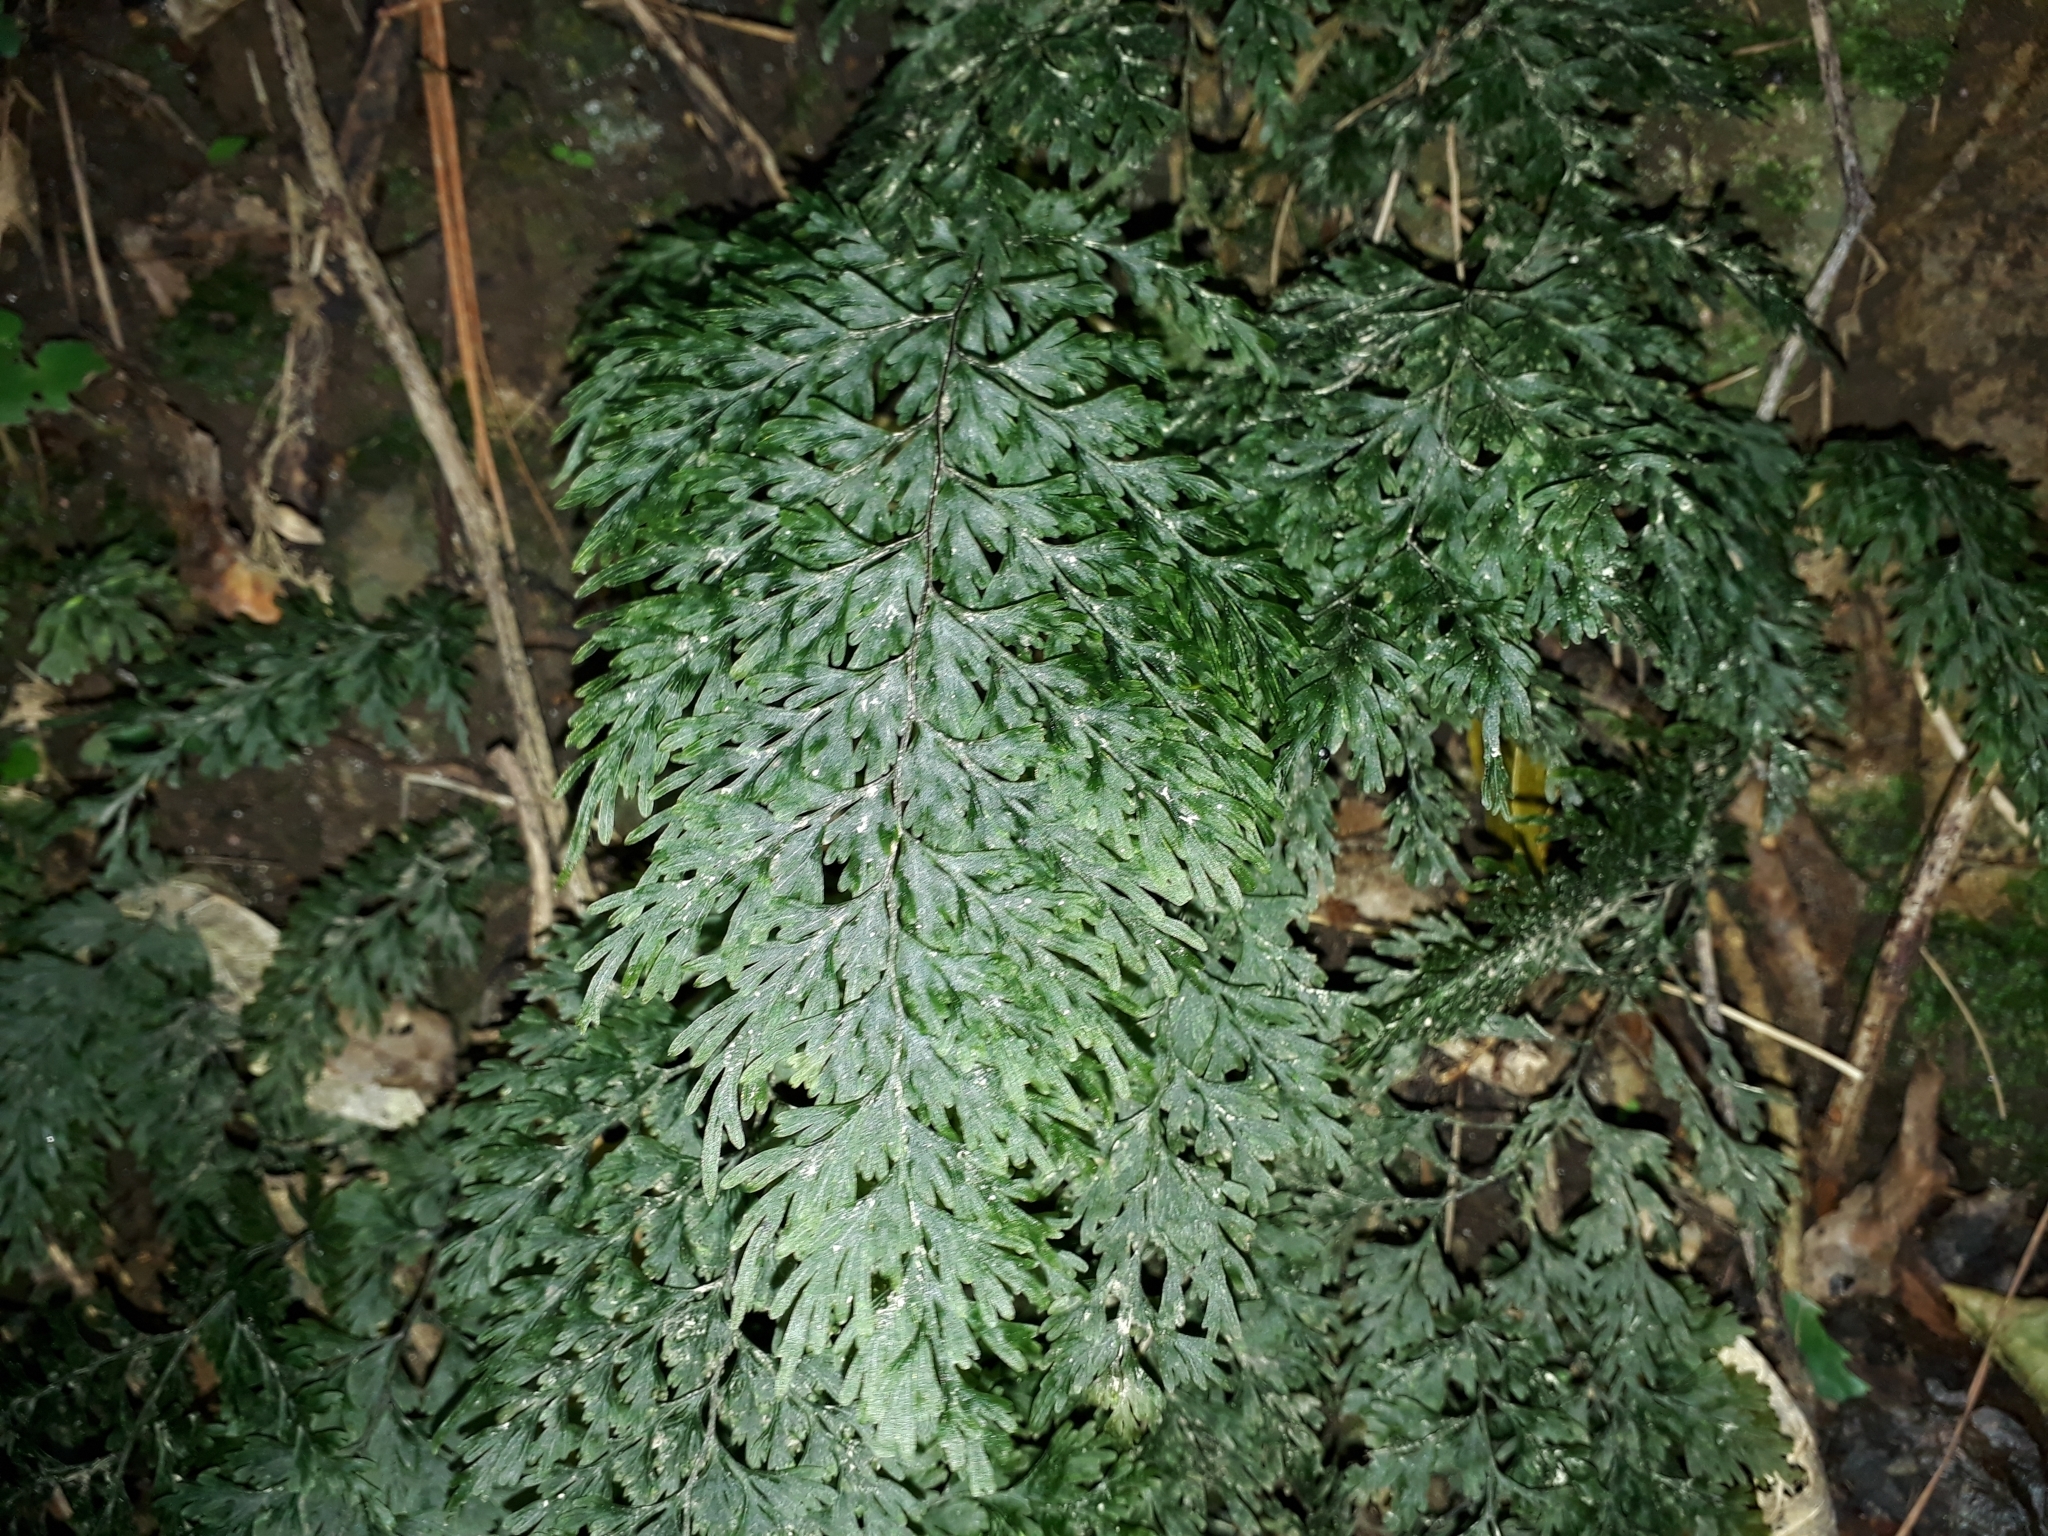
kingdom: Plantae
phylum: Tracheophyta
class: Polypodiopsida
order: Hymenophyllales
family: Hymenophyllaceae
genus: Hymenophyllum
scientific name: Hymenophyllum demissum
